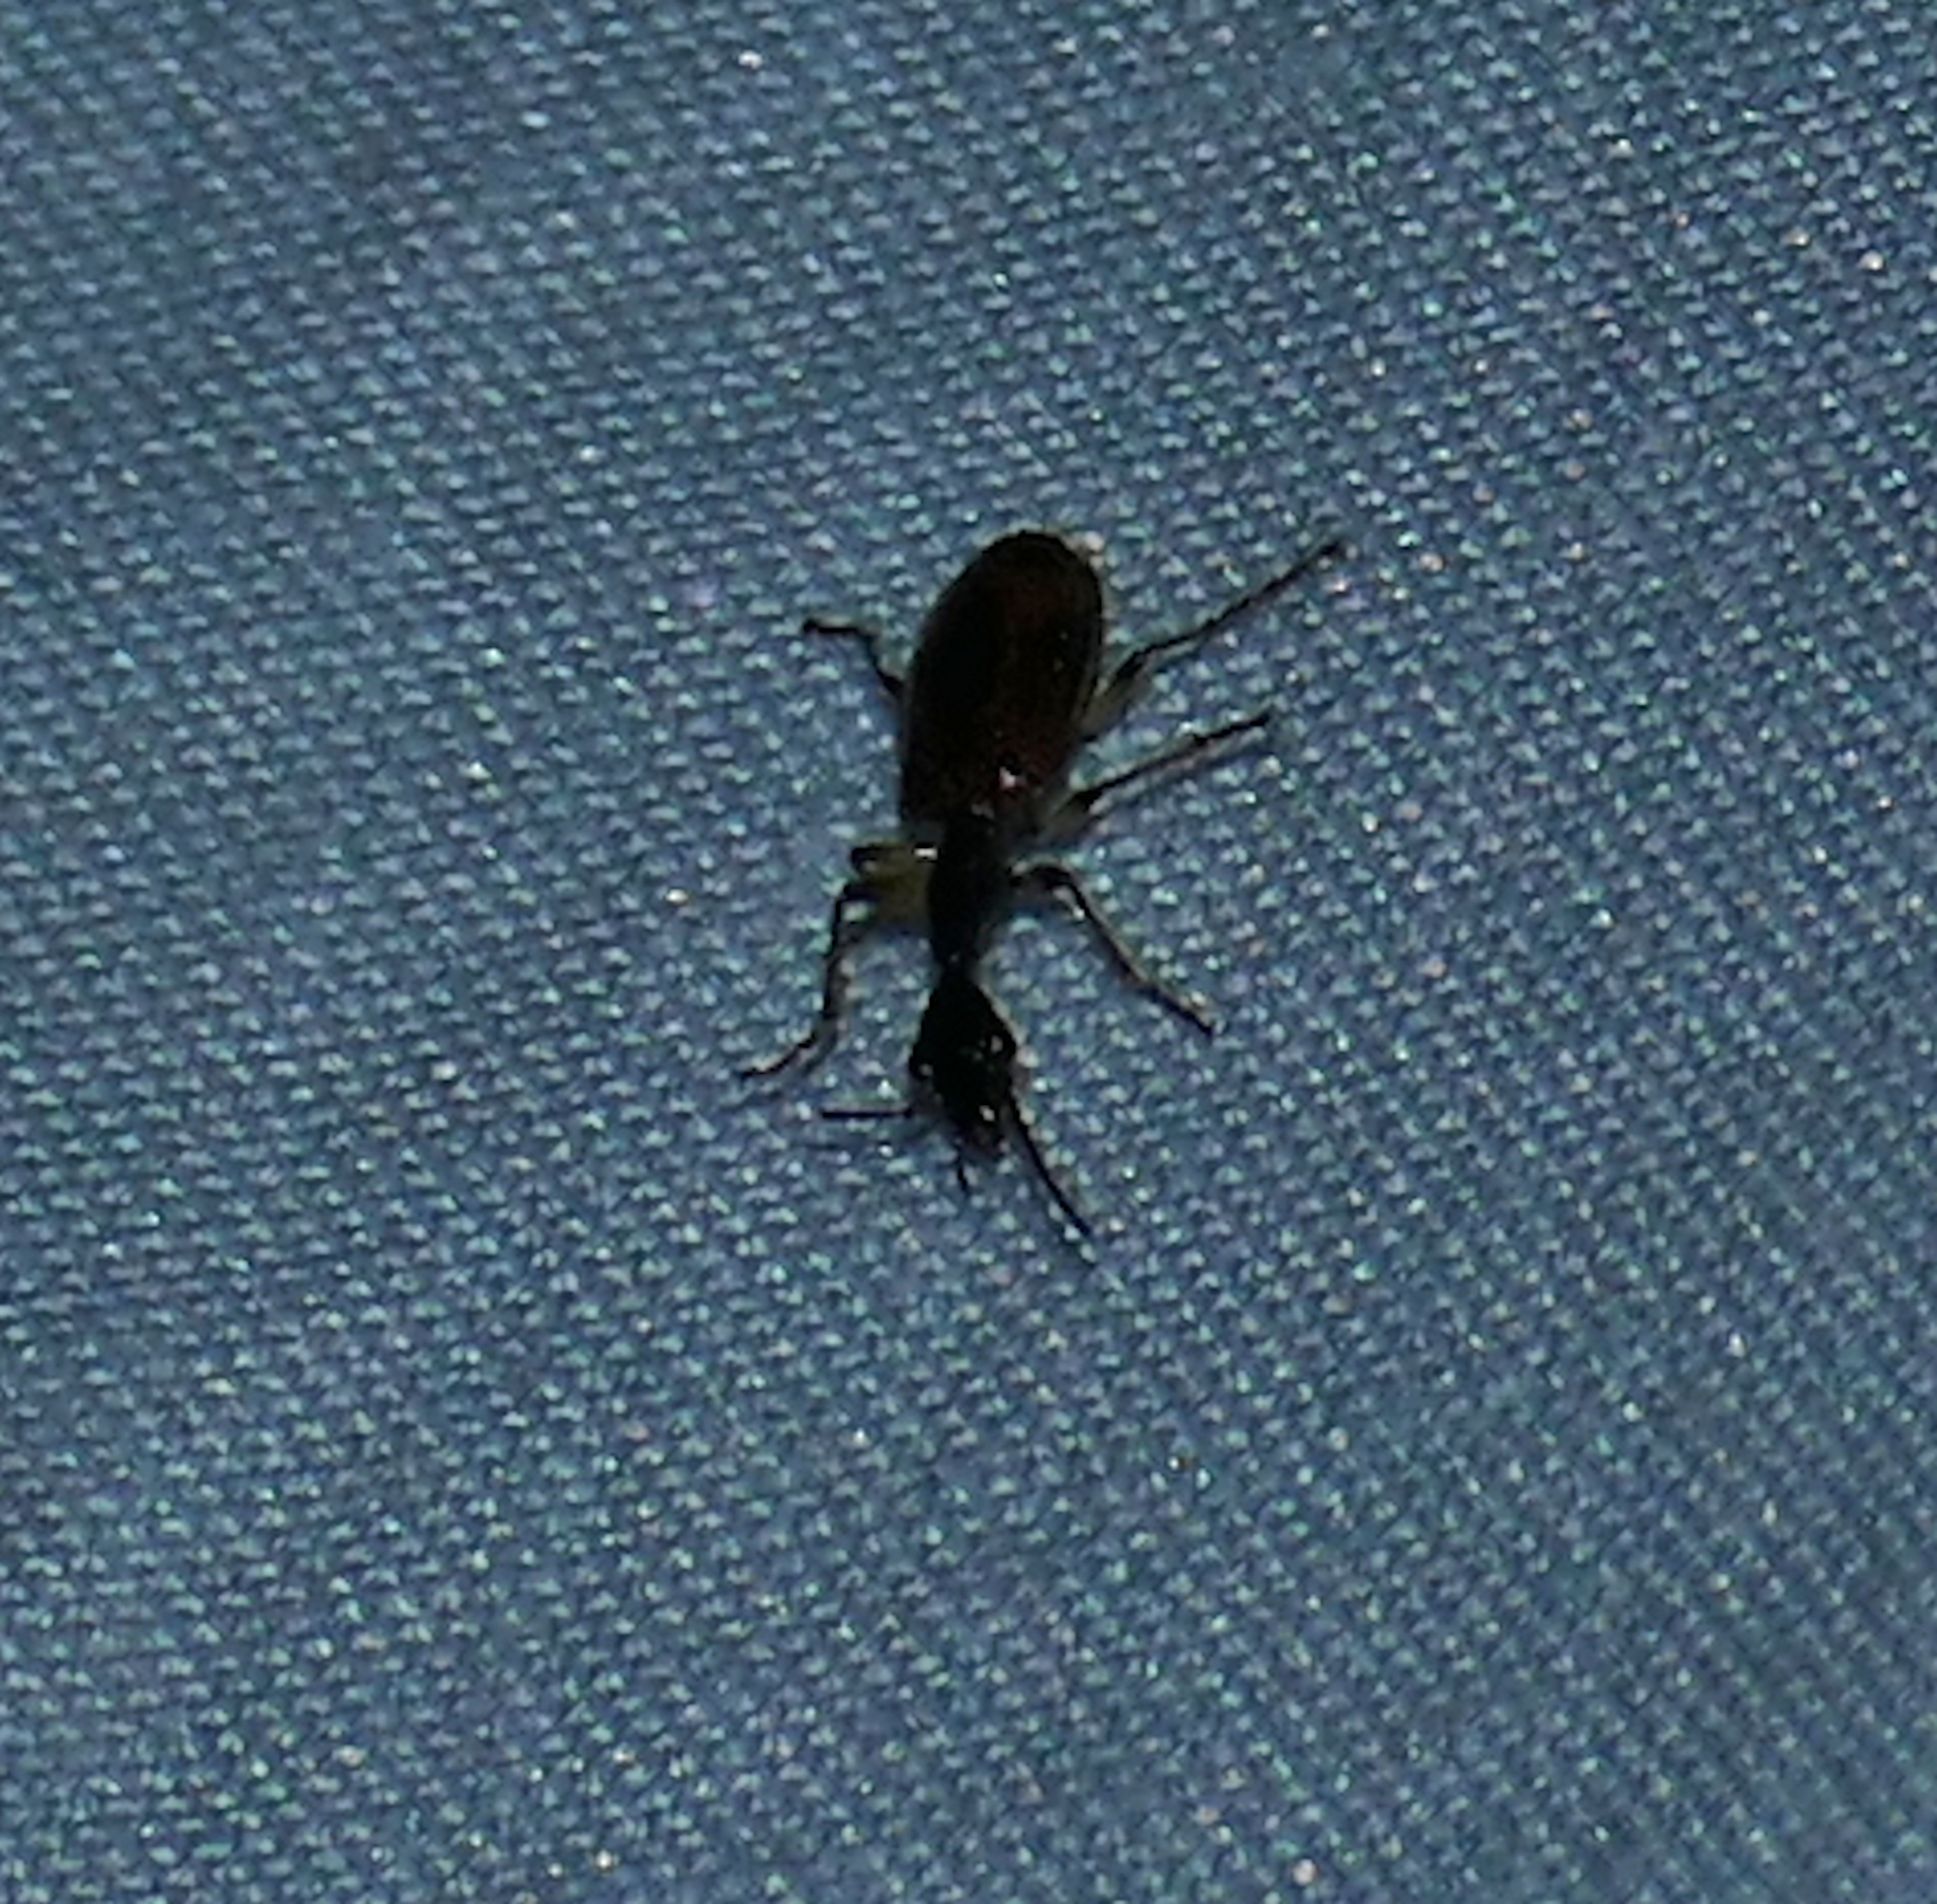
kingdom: Animalia
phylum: Arthropoda
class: Insecta
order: Coleoptera
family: Carabidae
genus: Colliuris
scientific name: Colliuris pensylvanica
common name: Long-necked ground beetle
